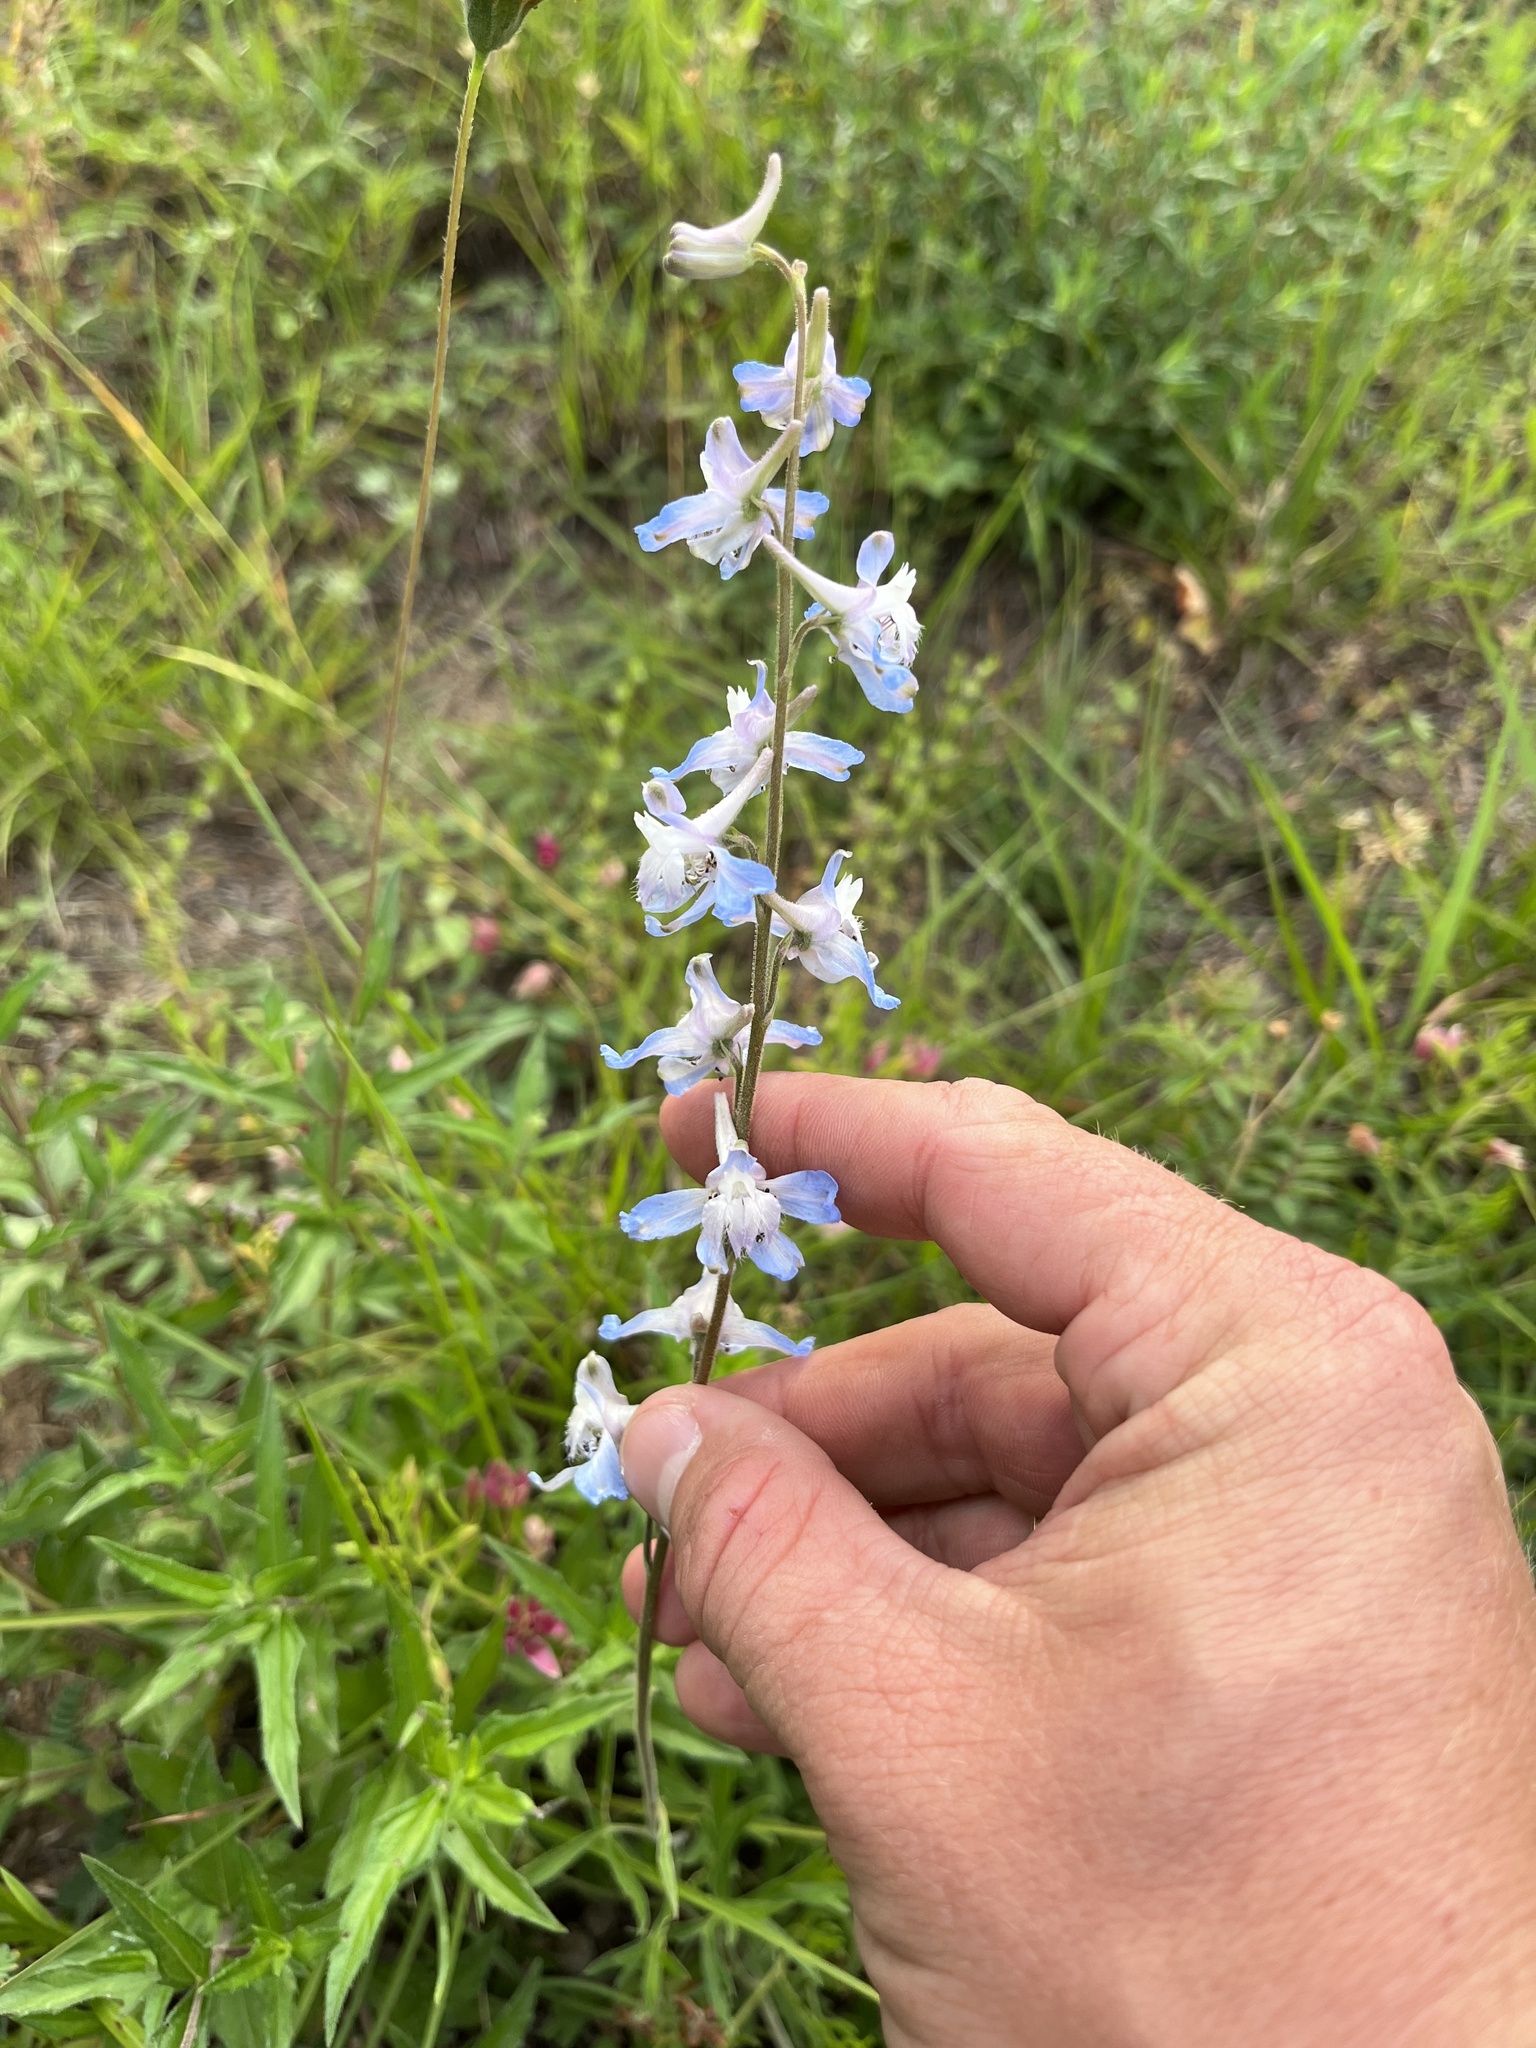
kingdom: Plantae
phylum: Tracheophyta
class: Magnoliopsida
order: Ranunculales
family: Ranunculaceae
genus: Delphinium
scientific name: Delphinium carolinianum
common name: Carolina larkspur
